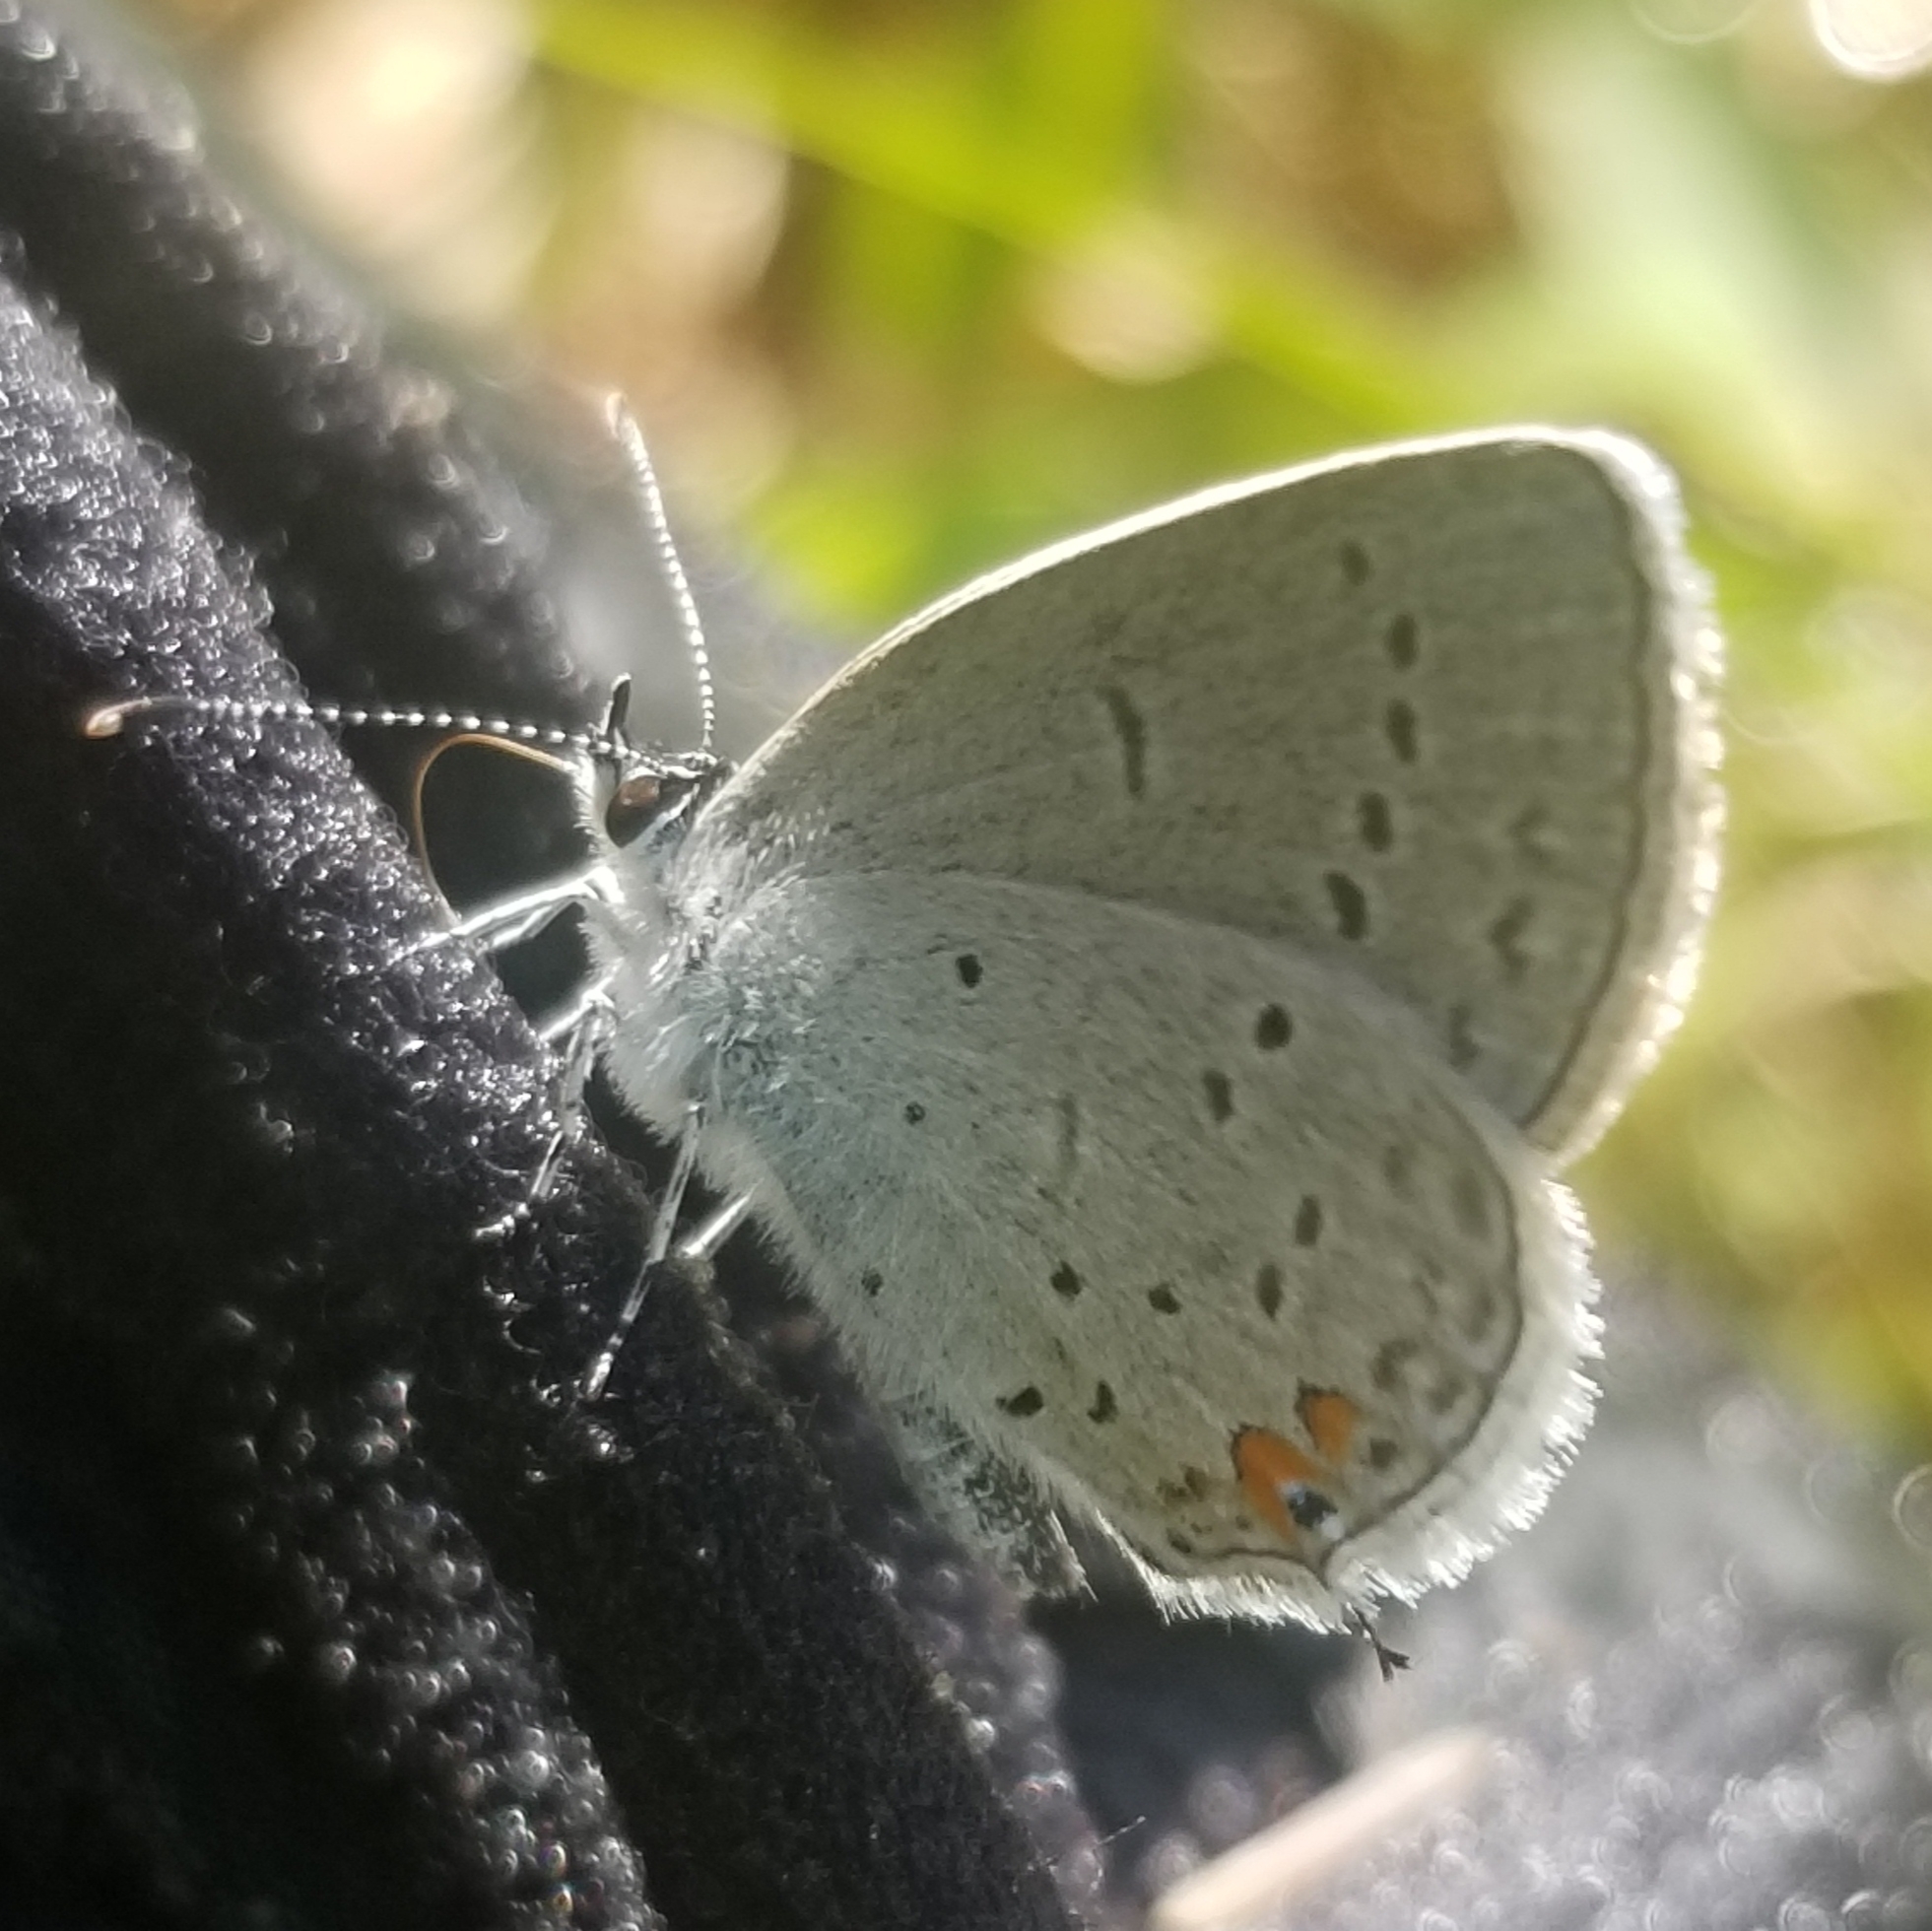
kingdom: Animalia
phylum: Arthropoda
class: Insecta
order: Lepidoptera
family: Lycaenidae
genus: Elkalyce
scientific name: Elkalyce comyntas
